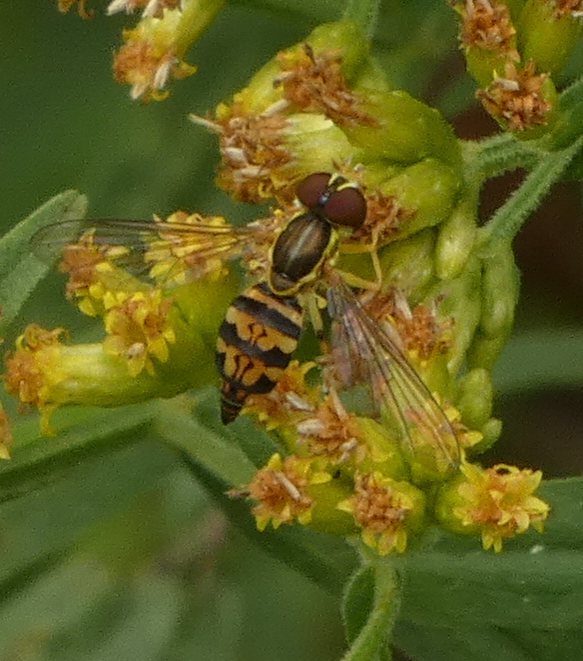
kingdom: Animalia
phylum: Arthropoda
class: Insecta
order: Diptera
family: Syrphidae
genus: Toxomerus
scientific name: Toxomerus geminatus
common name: Eastern calligrapher
